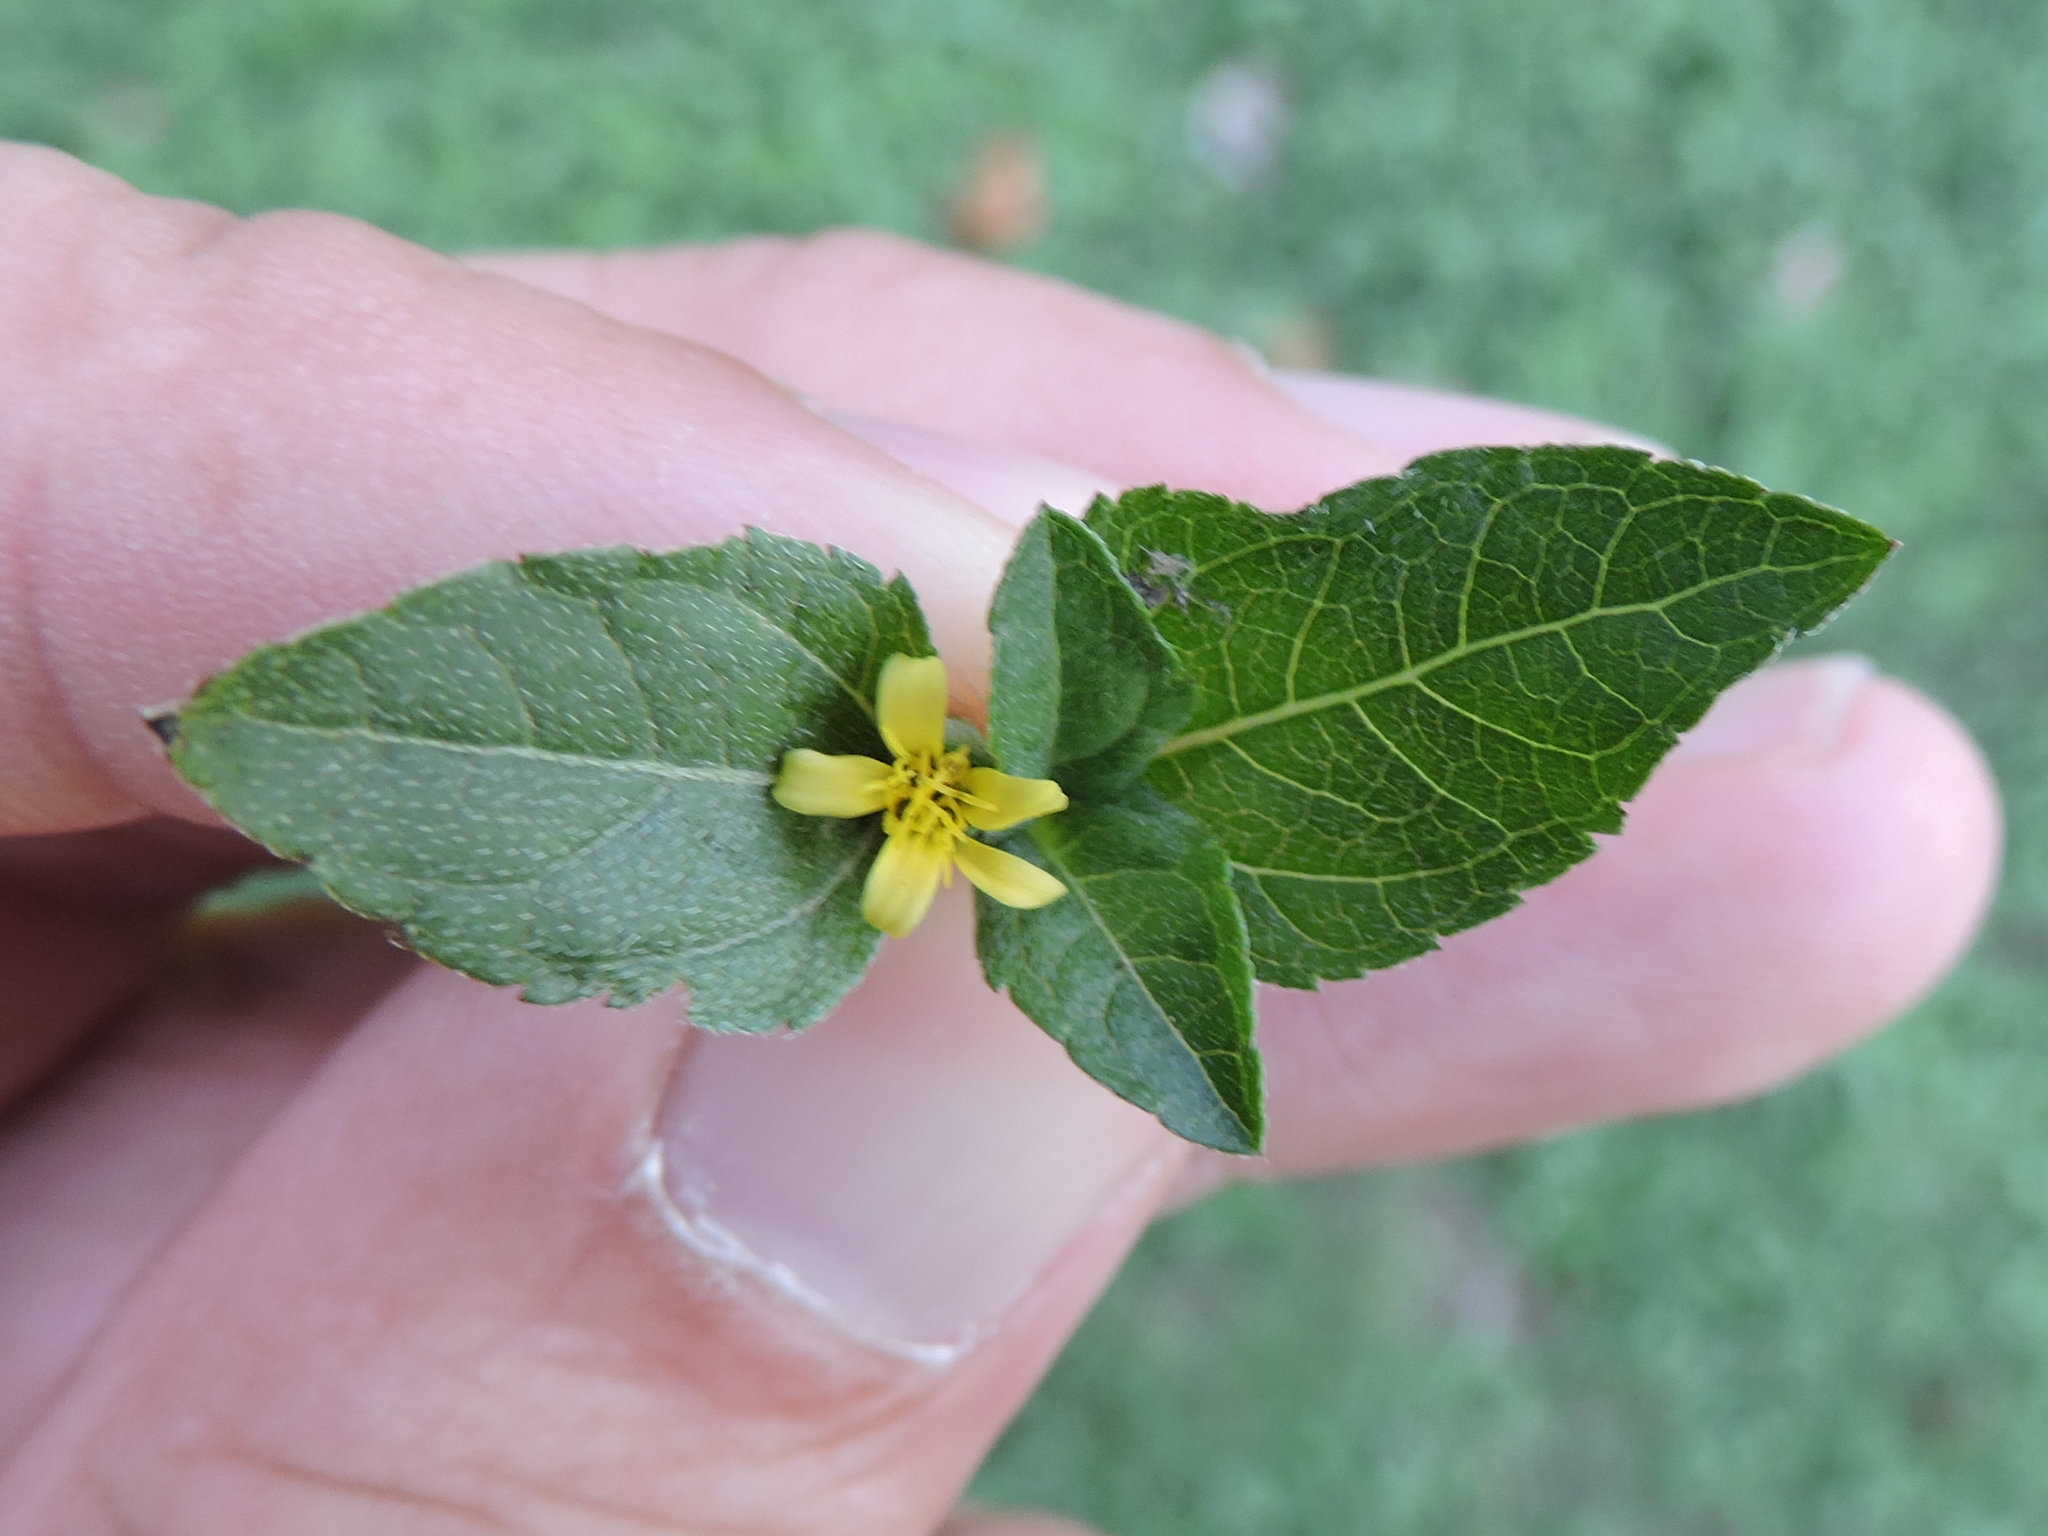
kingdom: Plantae
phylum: Tracheophyta
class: Magnoliopsida
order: Asterales
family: Asteraceae
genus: Calyptocarpus
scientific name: Calyptocarpus vialis
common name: Straggler daisy
